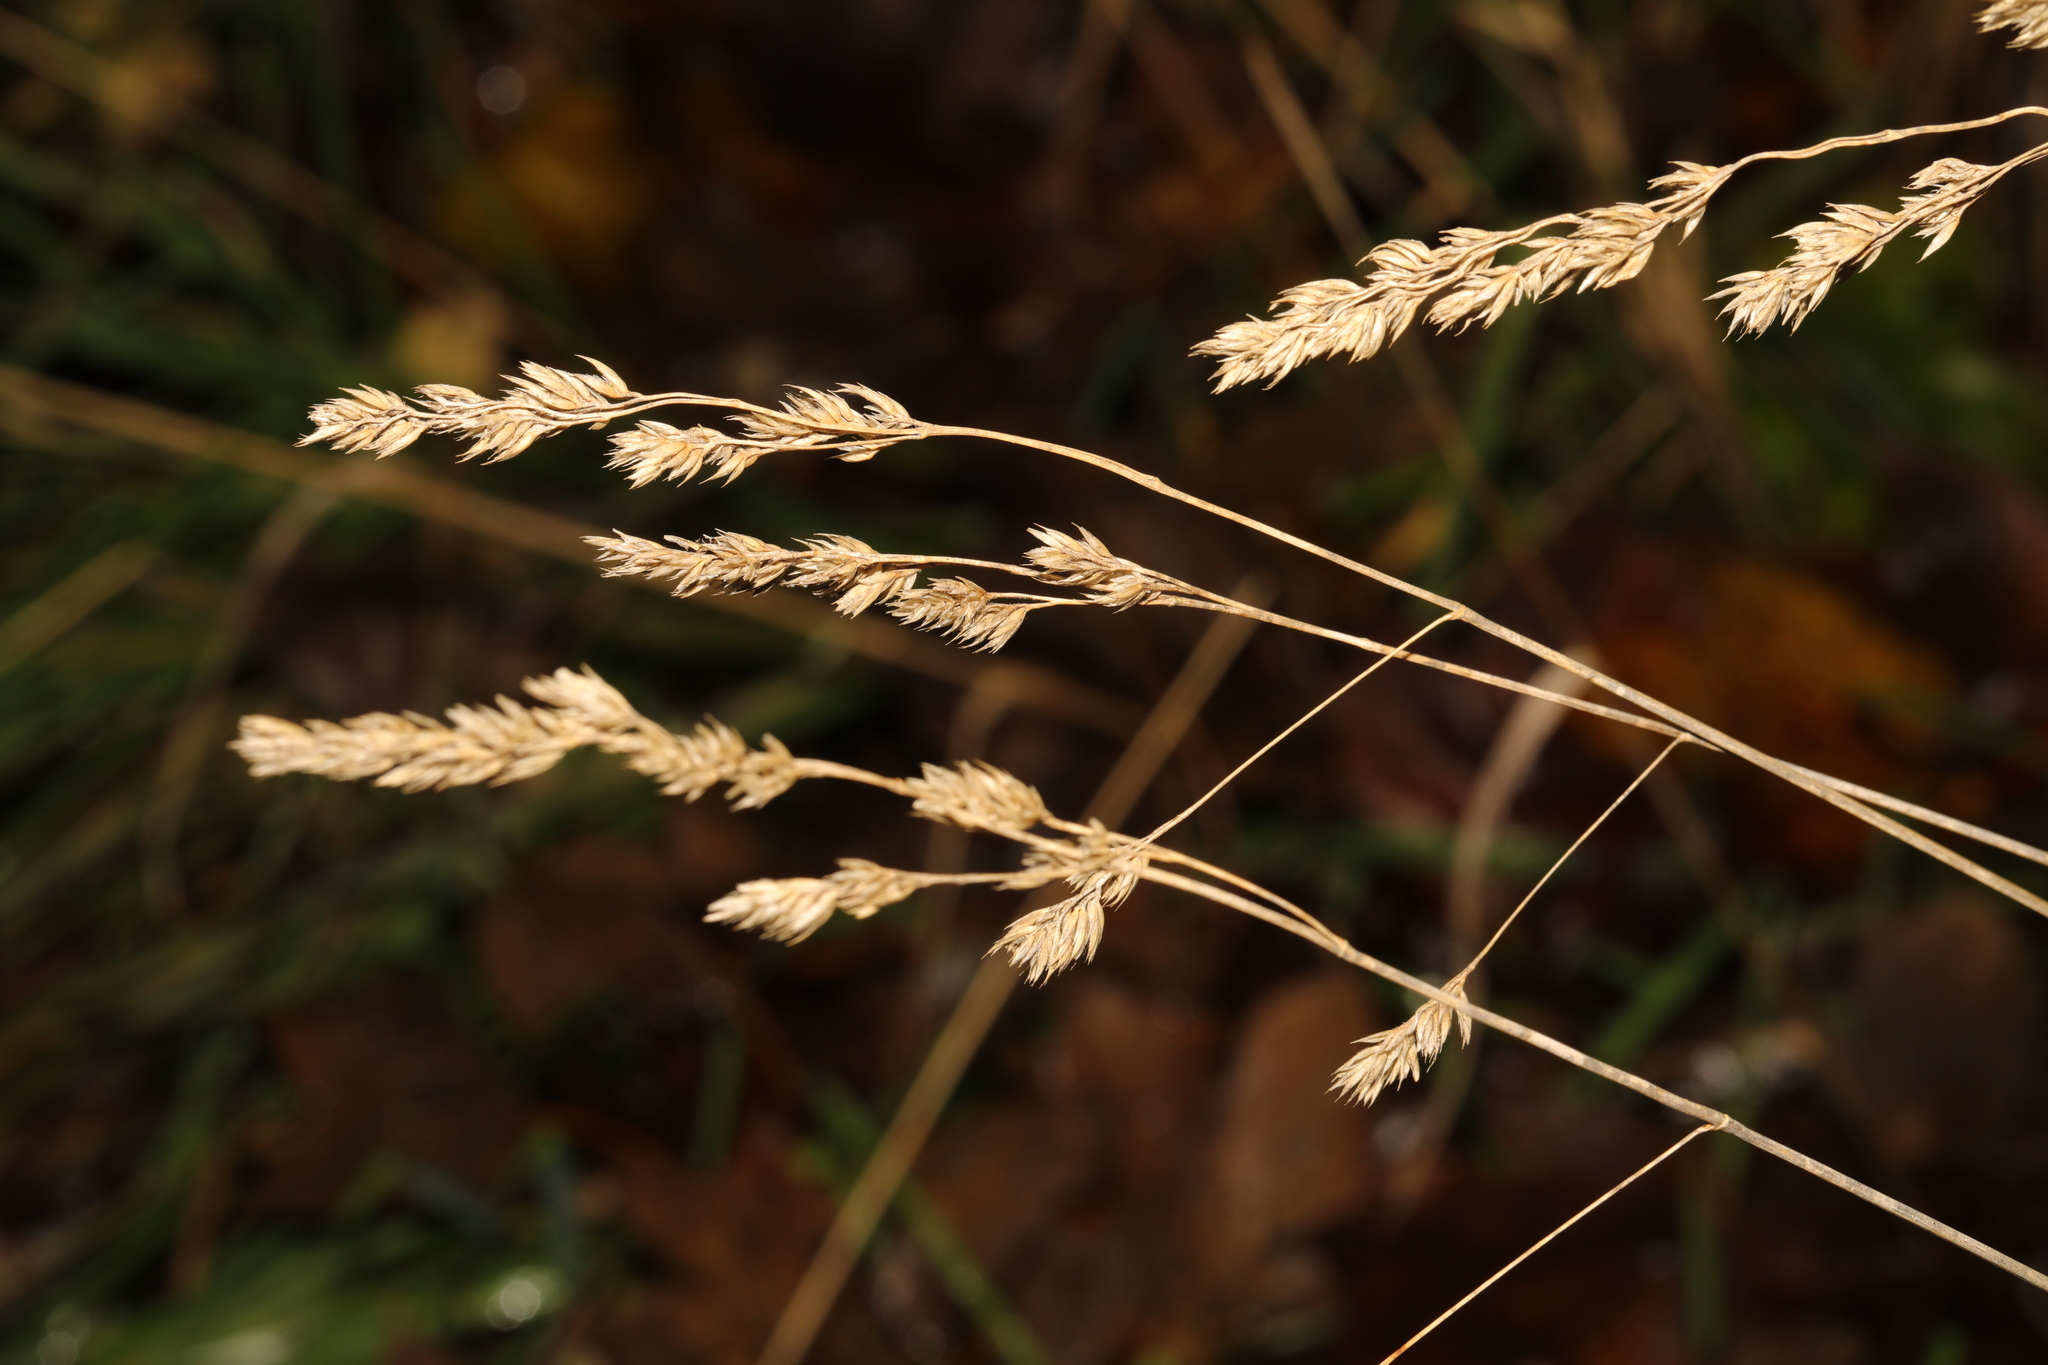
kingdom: Plantae
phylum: Tracheophyta
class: Liliopsida
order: Poales
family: Poaceae
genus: Dactylis
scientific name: Dactylis glomerata
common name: Orchardgrass
